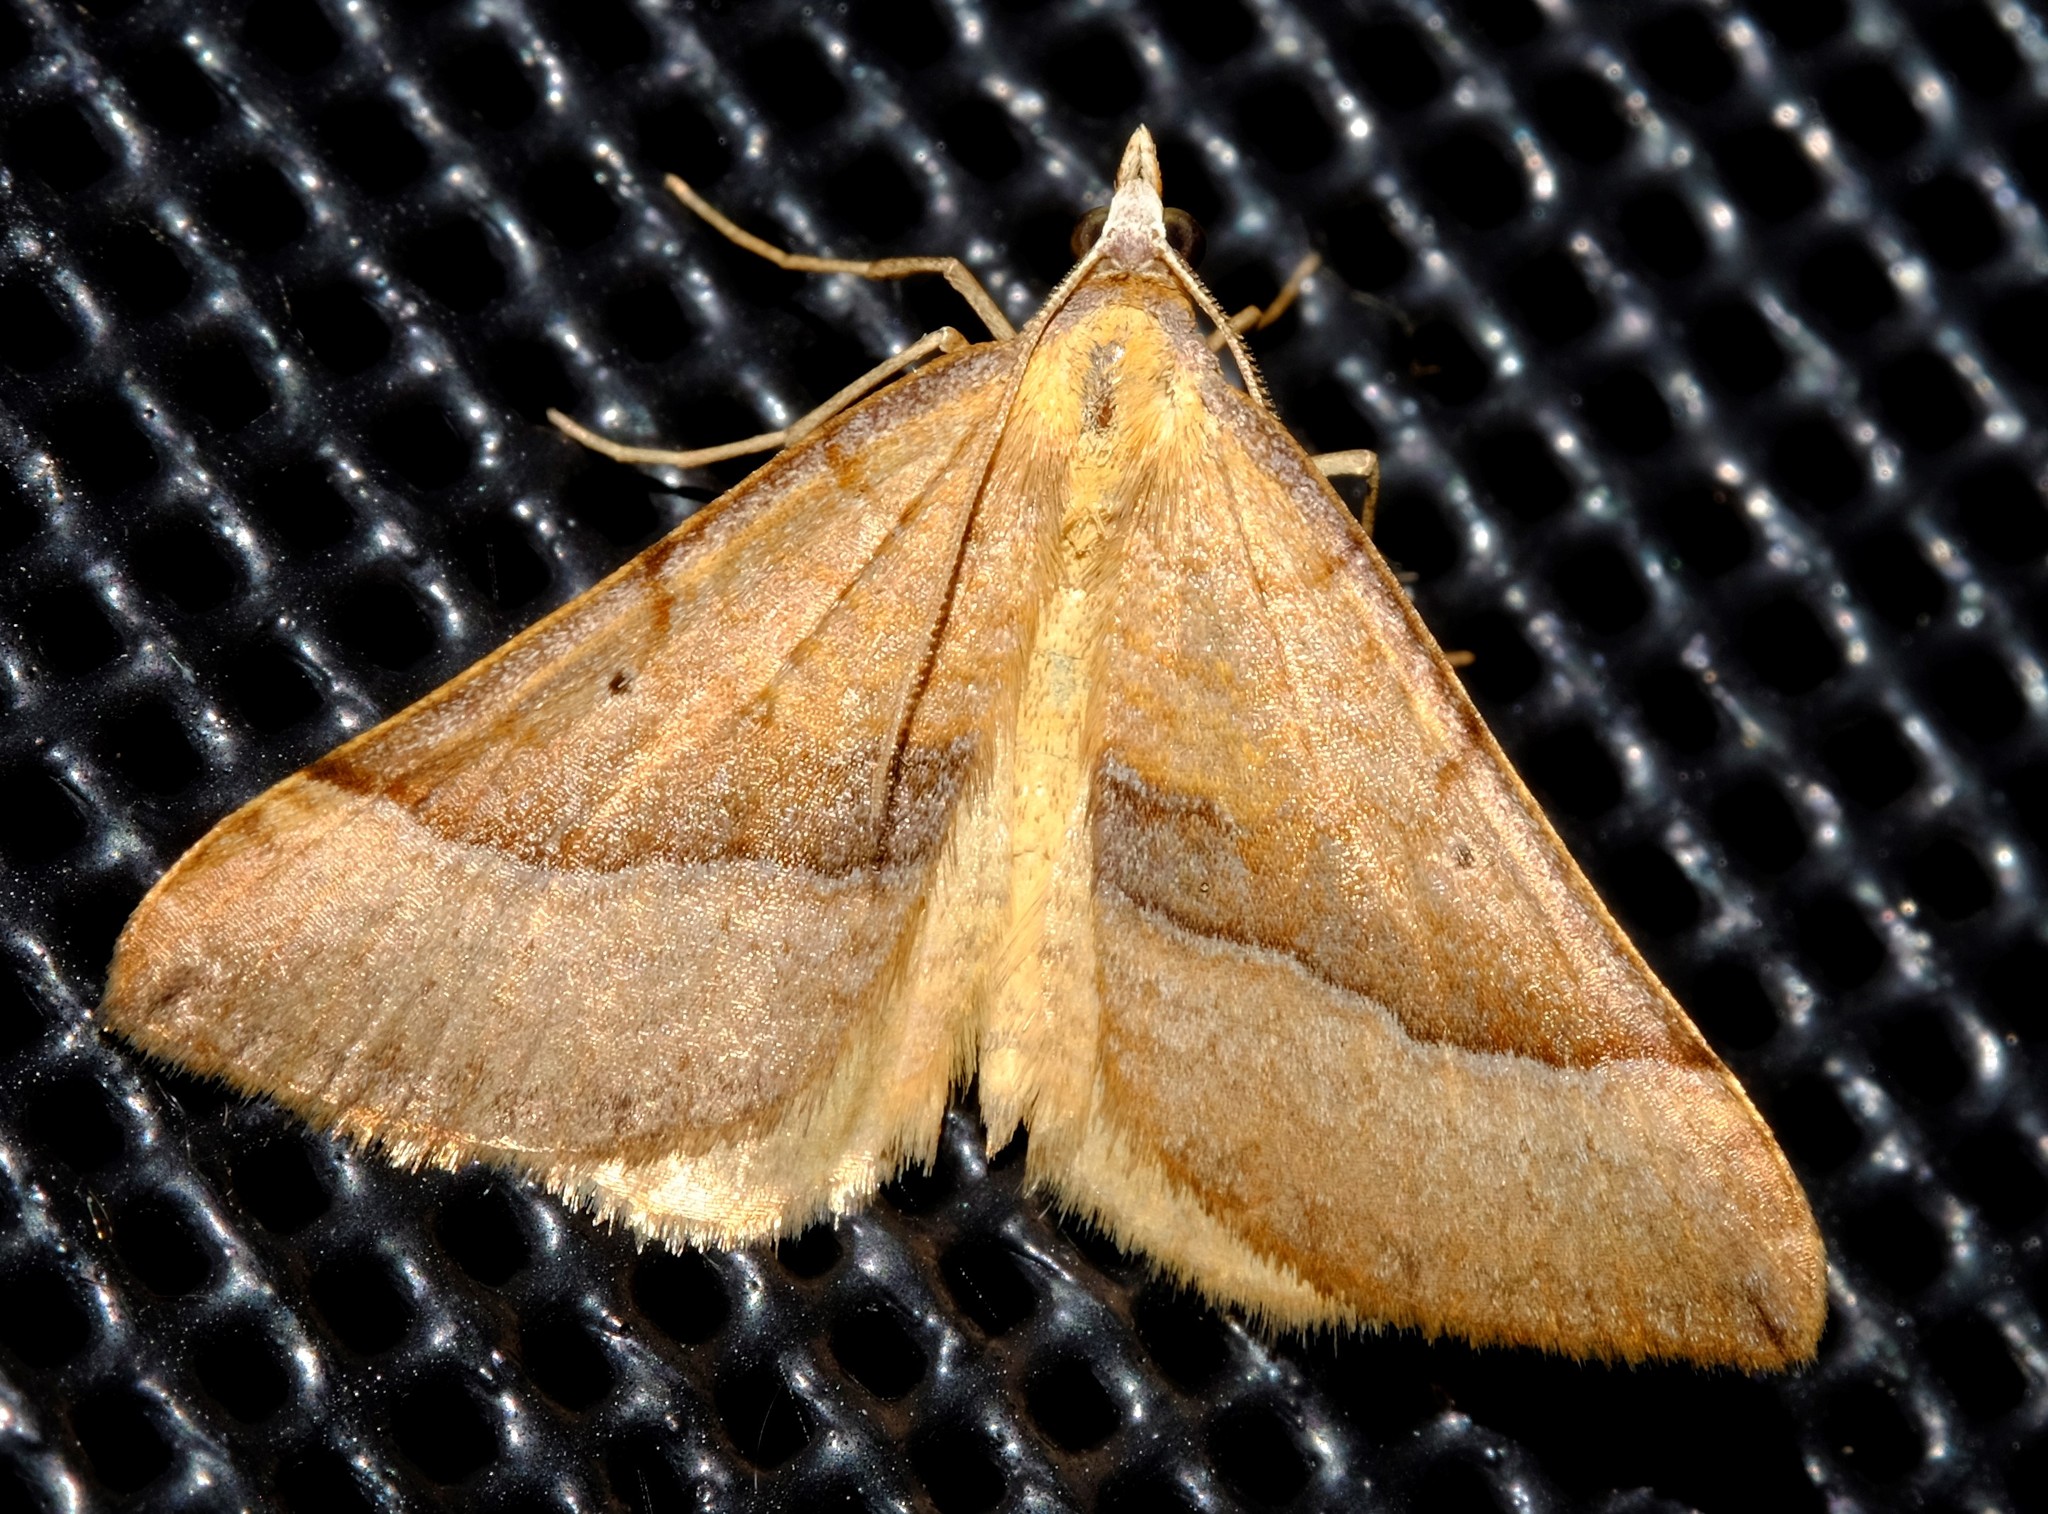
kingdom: Animalia
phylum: Arthropoda
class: Insecta
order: Lepidoptera
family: Geometridae
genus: Anachloris
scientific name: Anachloris subochraria
